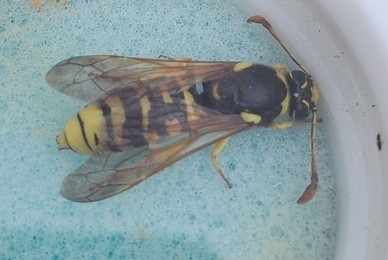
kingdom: Animalia
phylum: Arthropoda
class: Insecta
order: Hymenoptera
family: Masaridae
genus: Pseudomasaris
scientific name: Pseudomasaris vespoides
